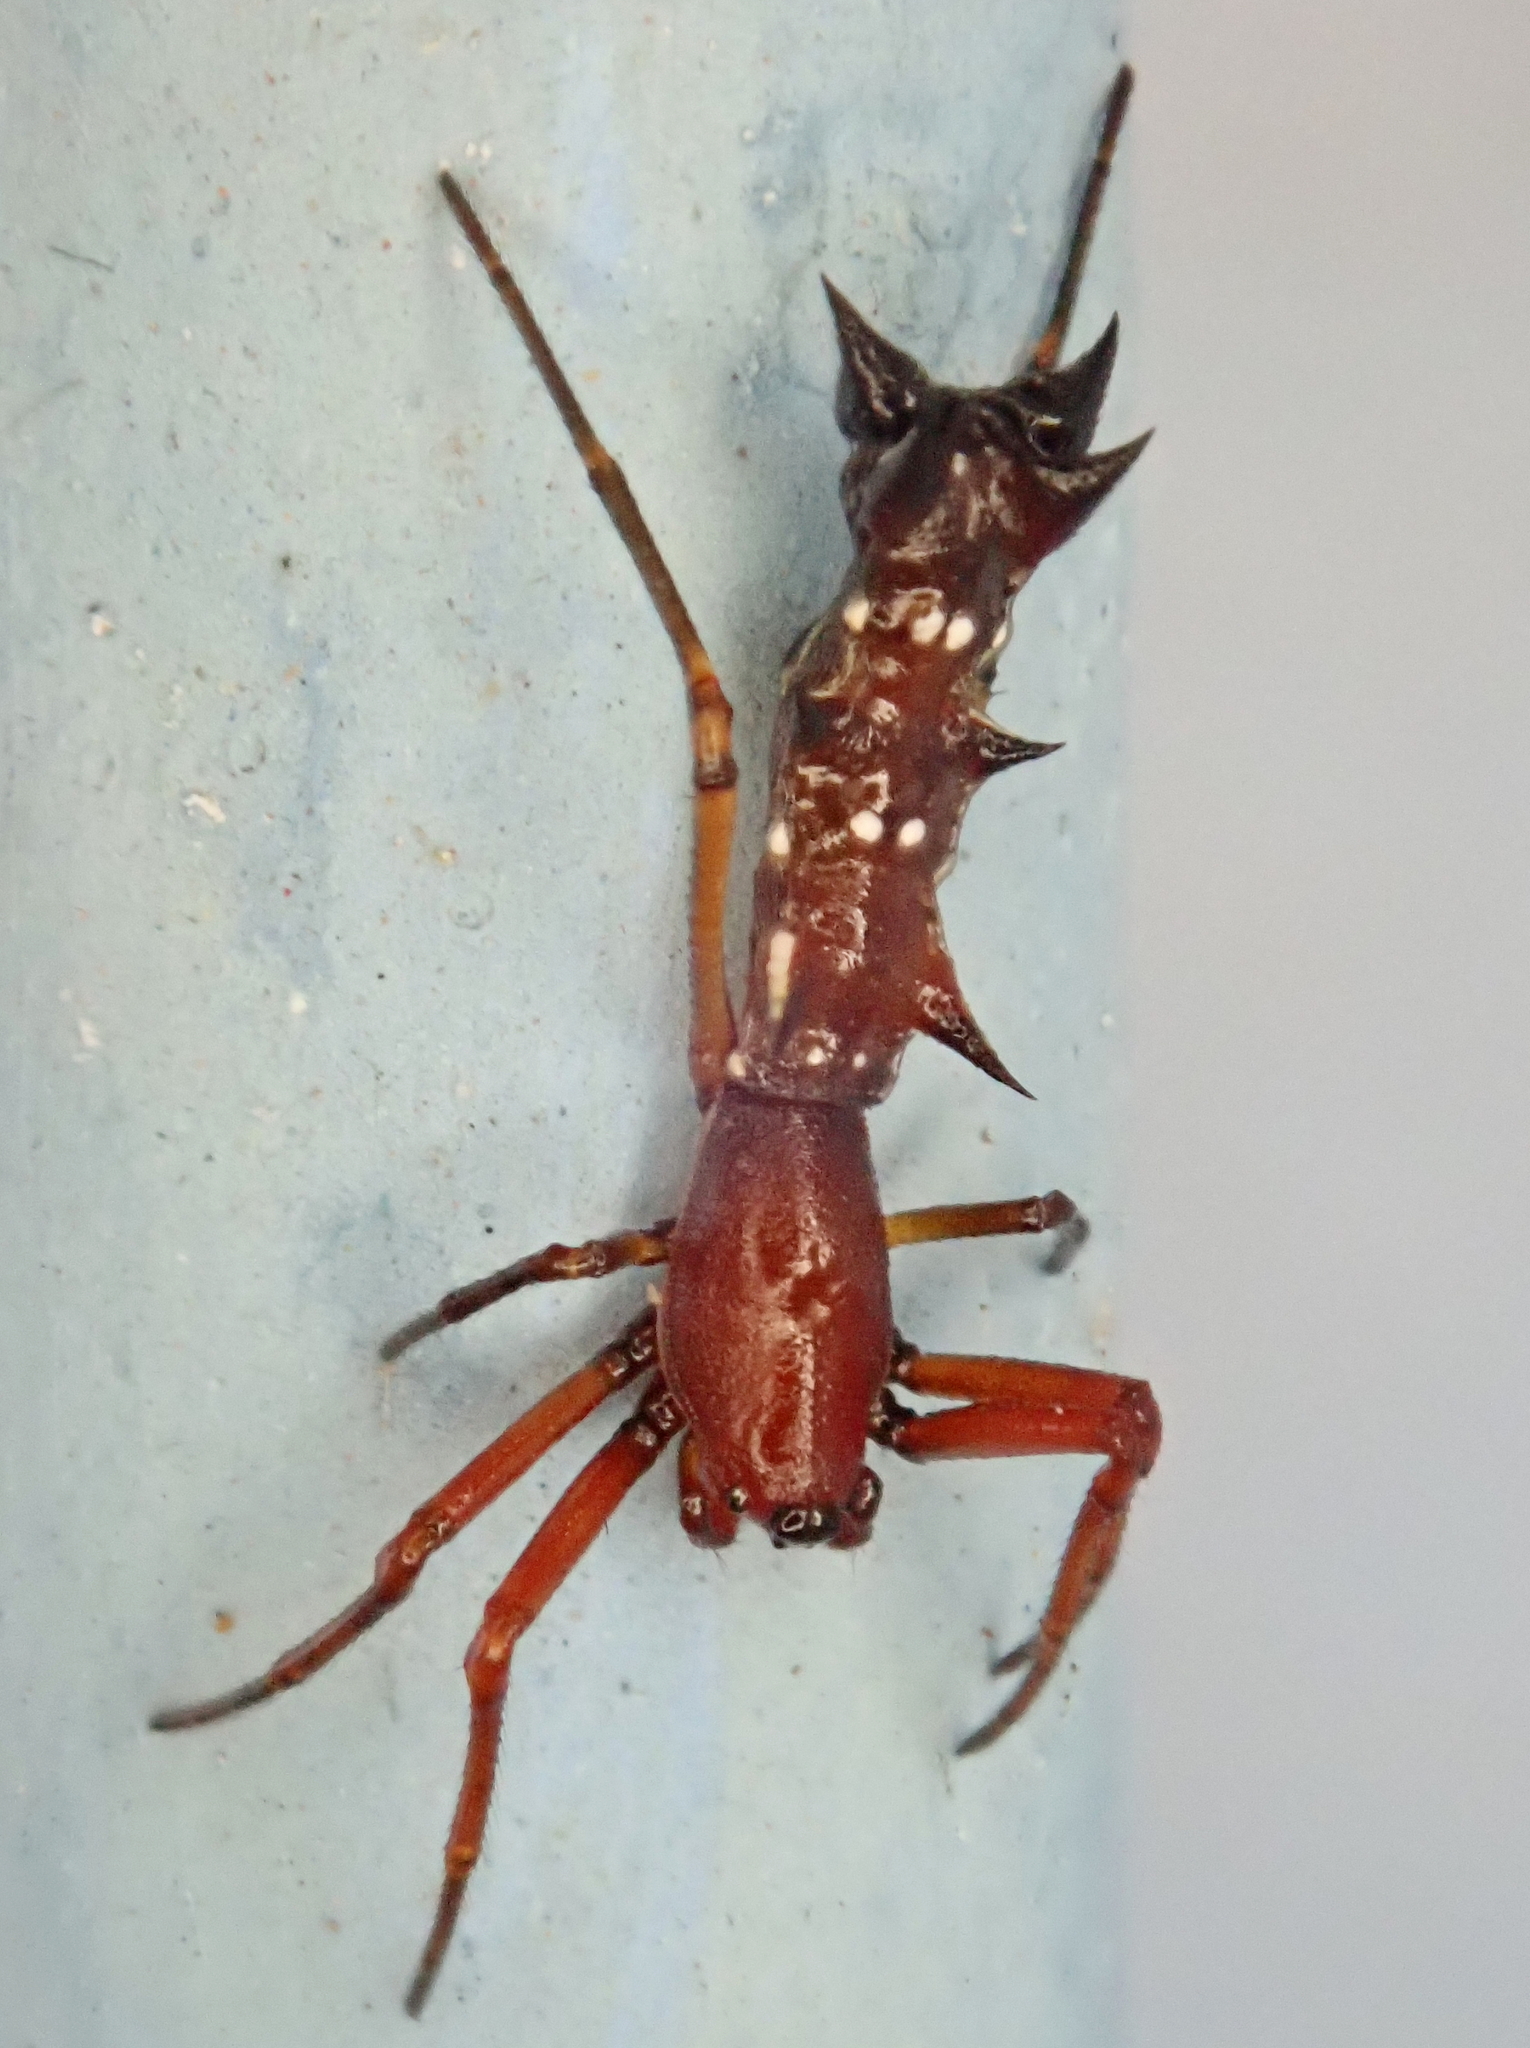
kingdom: Animalia
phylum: Arthropoda
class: Arachnida
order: Araneae
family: Araneidae
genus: Micrathena
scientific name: Micrathena swainsoni
